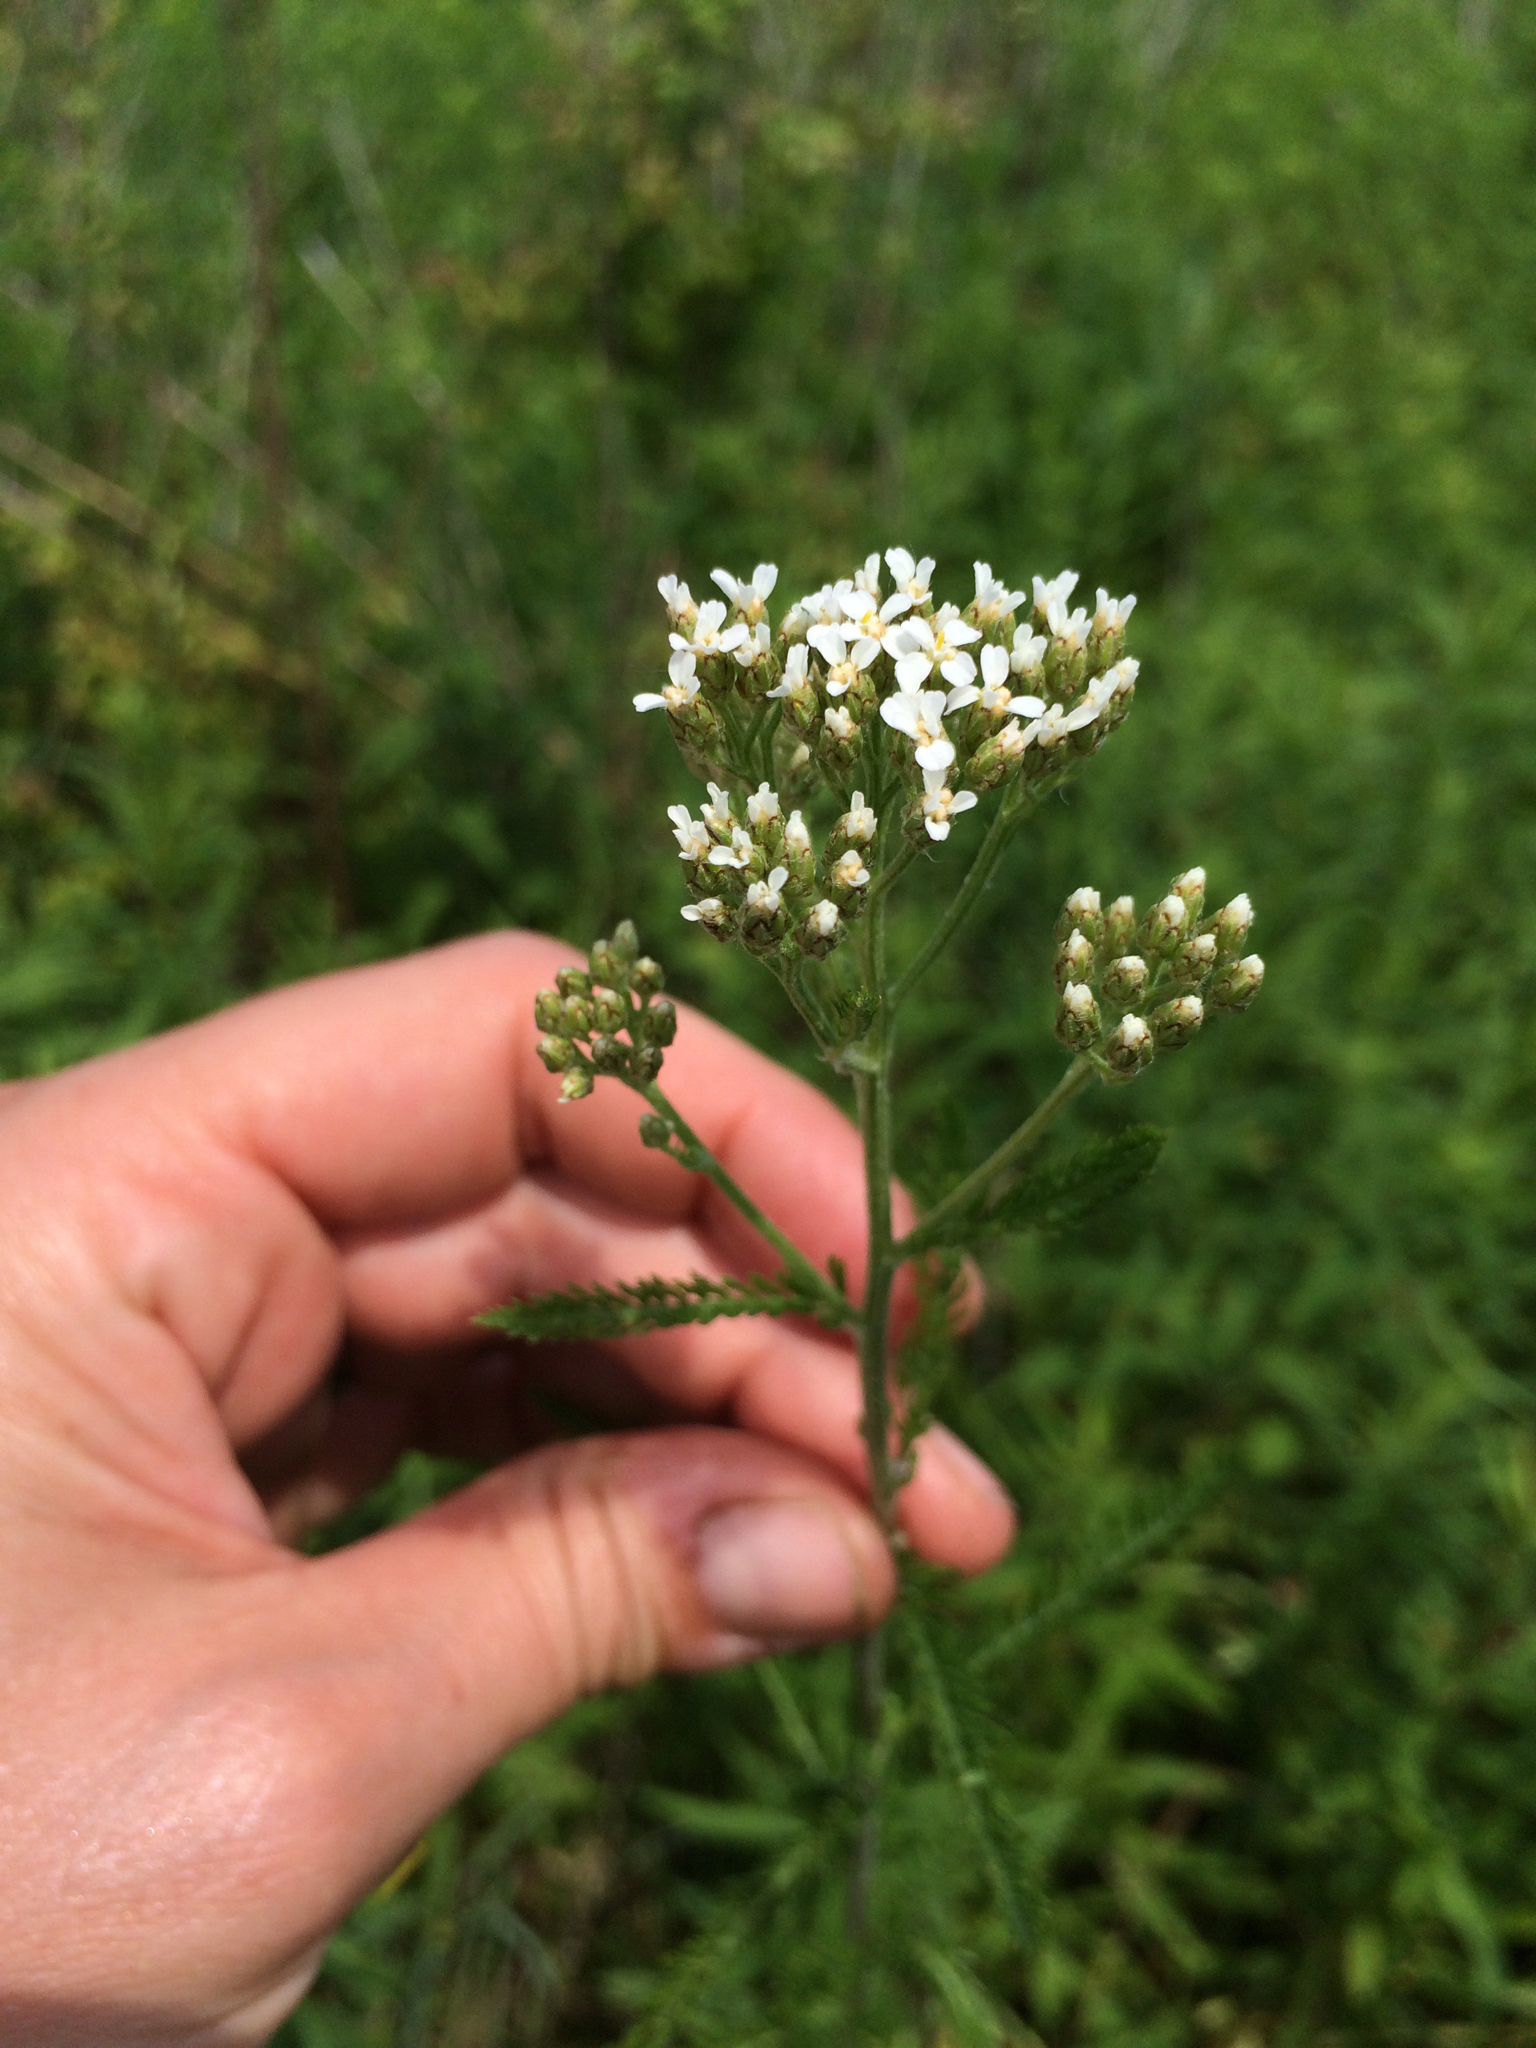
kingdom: Plantae
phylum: Tracheophyta
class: Magnoliopsida
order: Asterales
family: Asteraceae
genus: Achillea
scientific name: Achillea millefolium
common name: Yarrow
